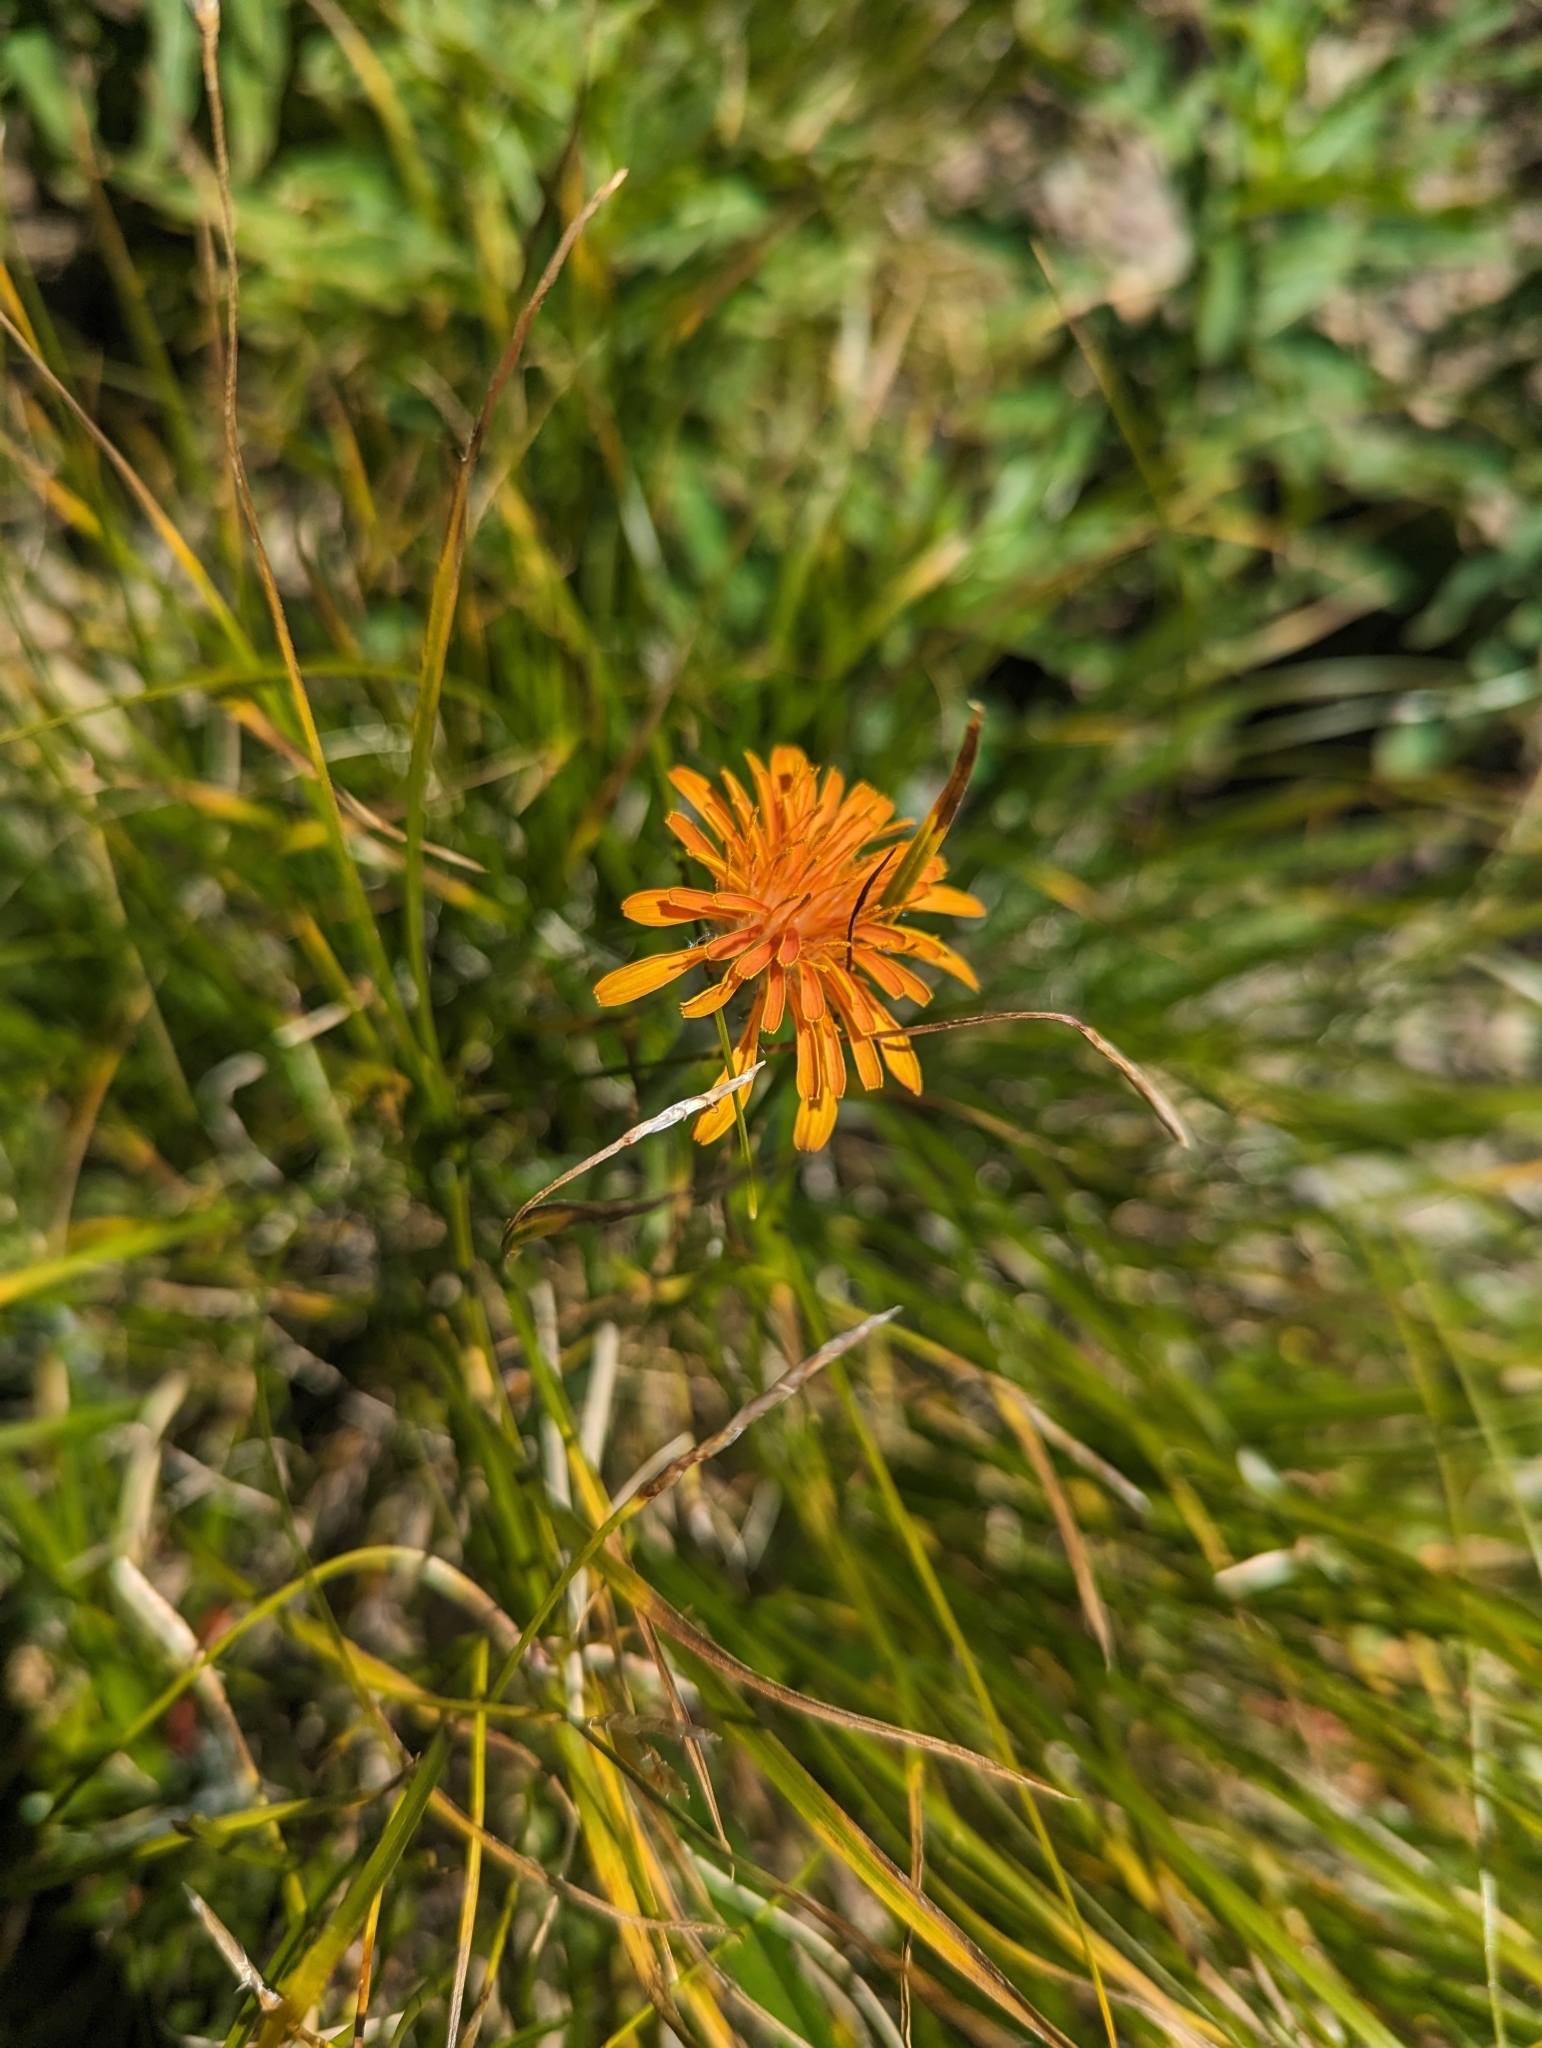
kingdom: Plantae
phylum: Tracheophyta
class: Magnoliopsida
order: Asterales
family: Asteraceae
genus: Agoseris
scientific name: Agoseris aurantiaca
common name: Mountain agoseris
